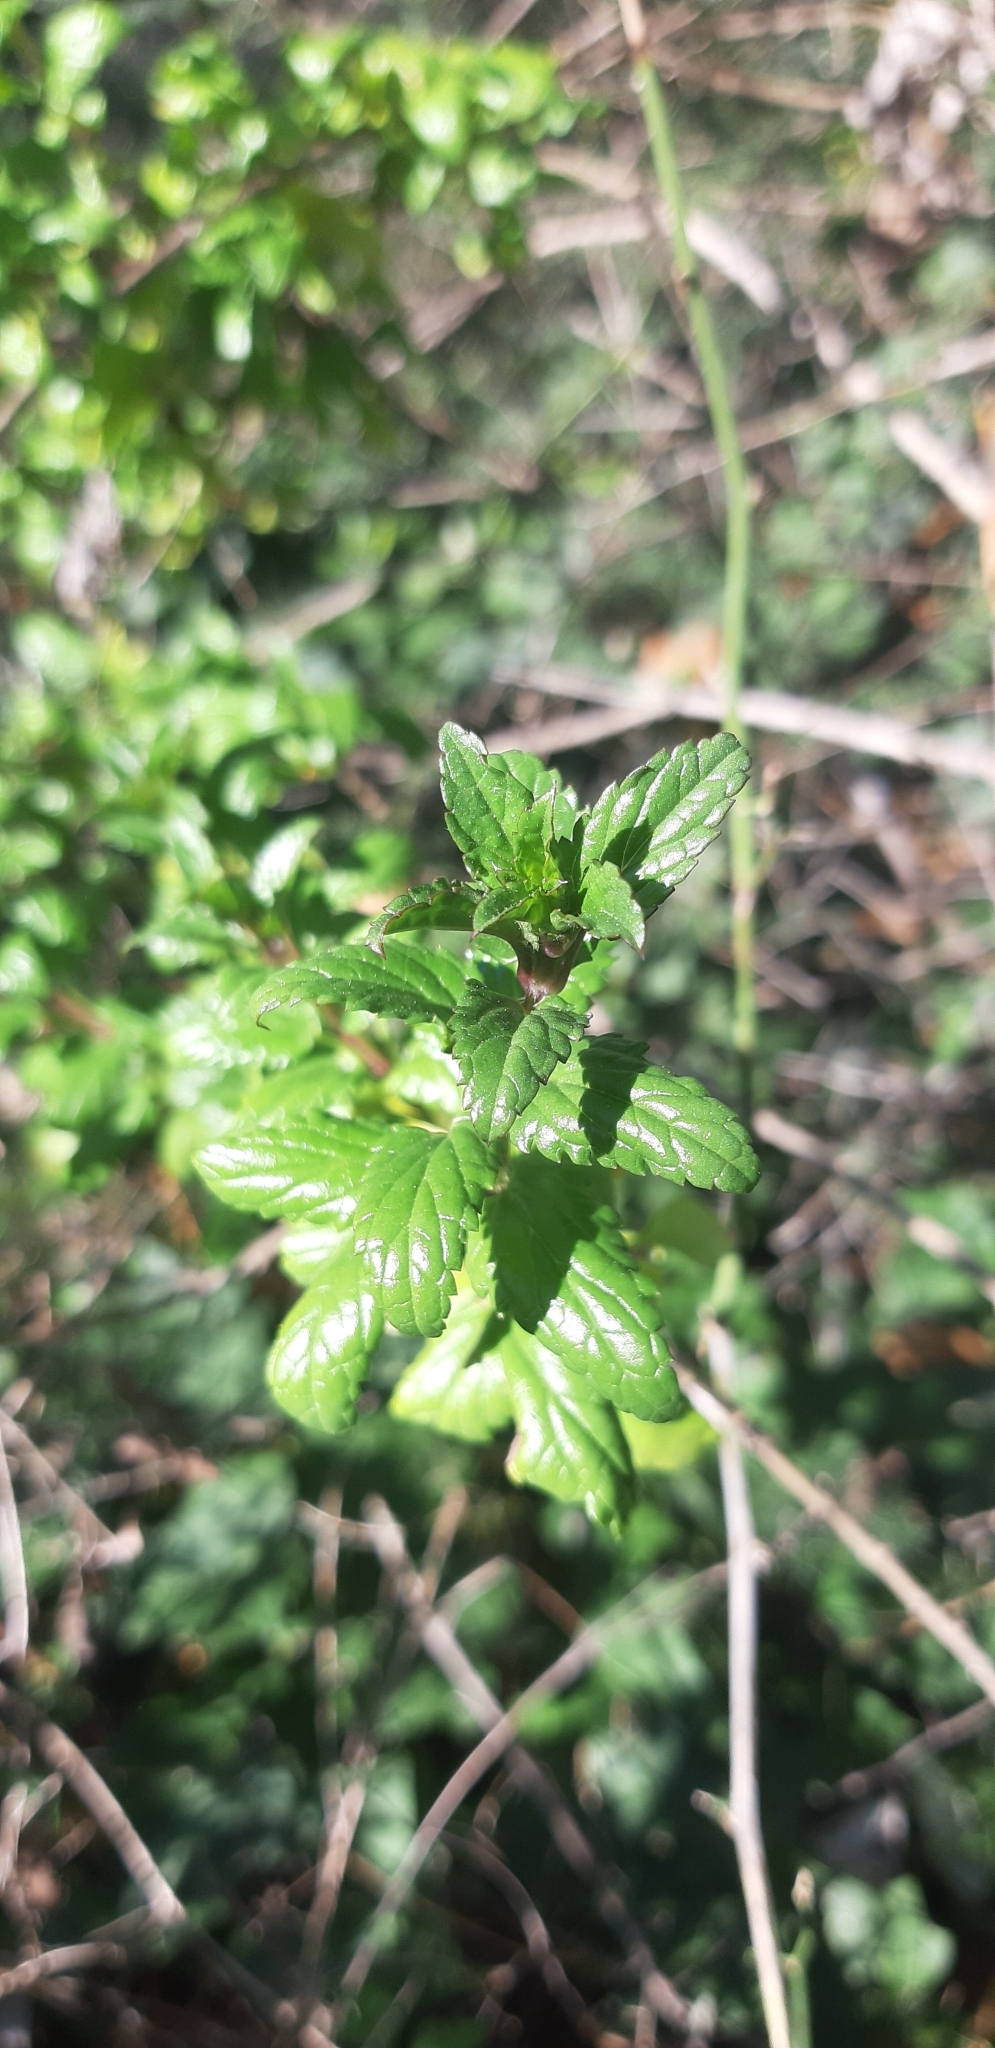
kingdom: Plantae
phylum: Tracheophyta
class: Magnoliopsida
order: Lamiales
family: Lamiaceae
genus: Prasium
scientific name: Prasium majus
